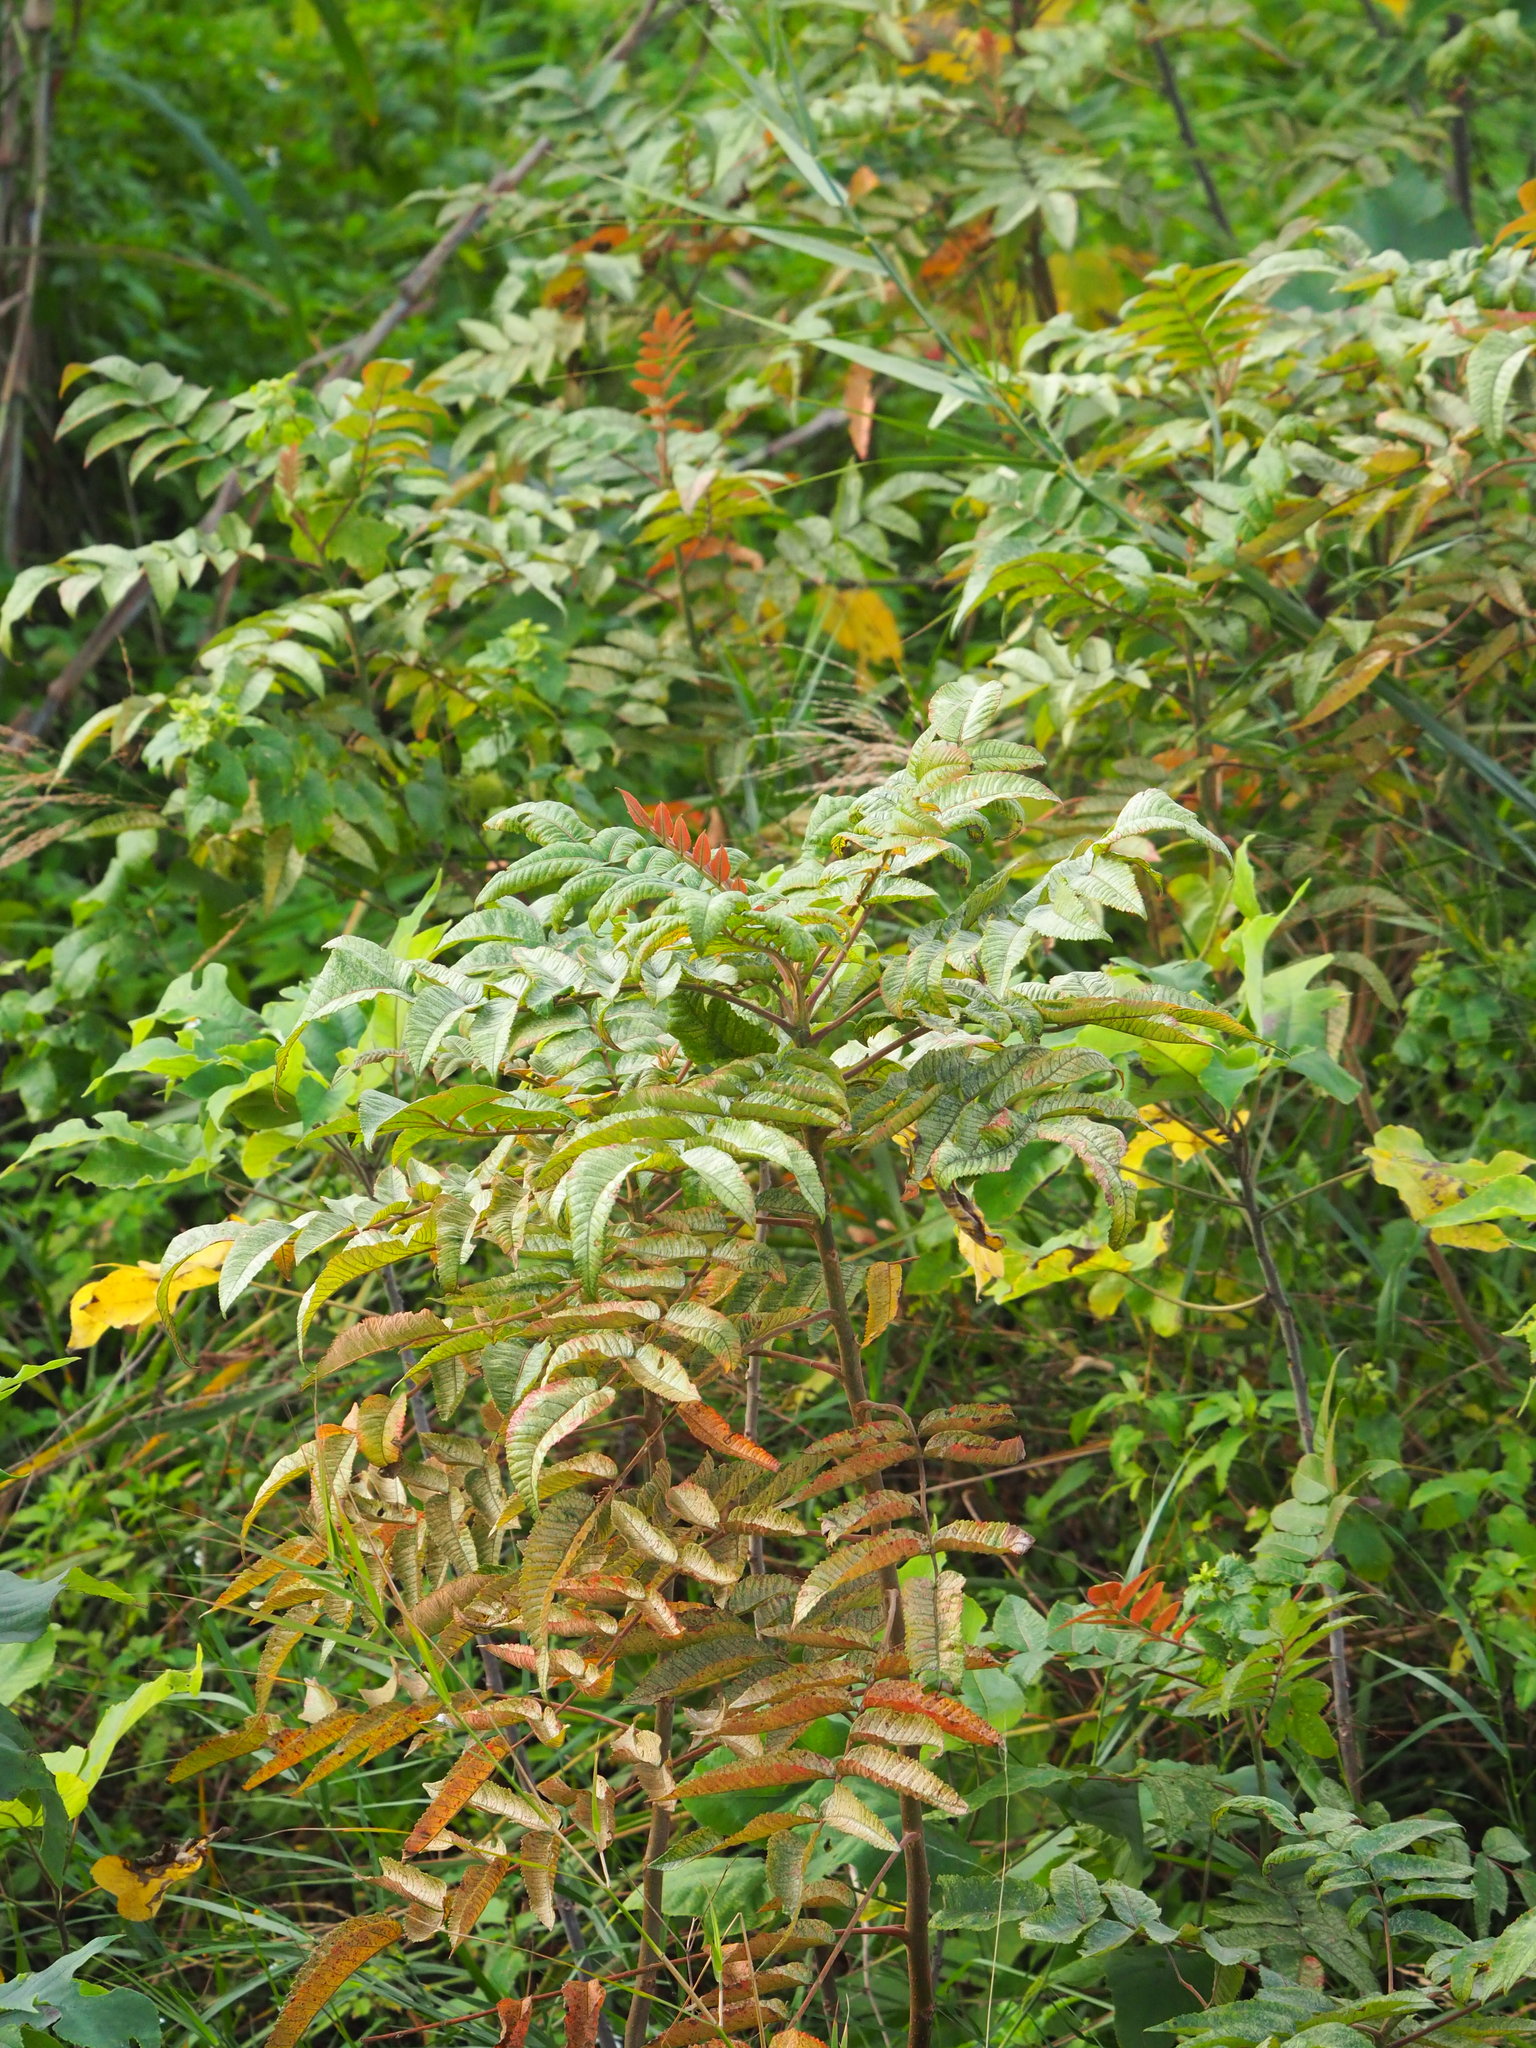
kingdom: Plantae
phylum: Tracheophyta
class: Magnoliopsida
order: Sapindales
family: Anacardiaceae
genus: Rhus
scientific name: Rhus chinensis
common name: Chinese gall
